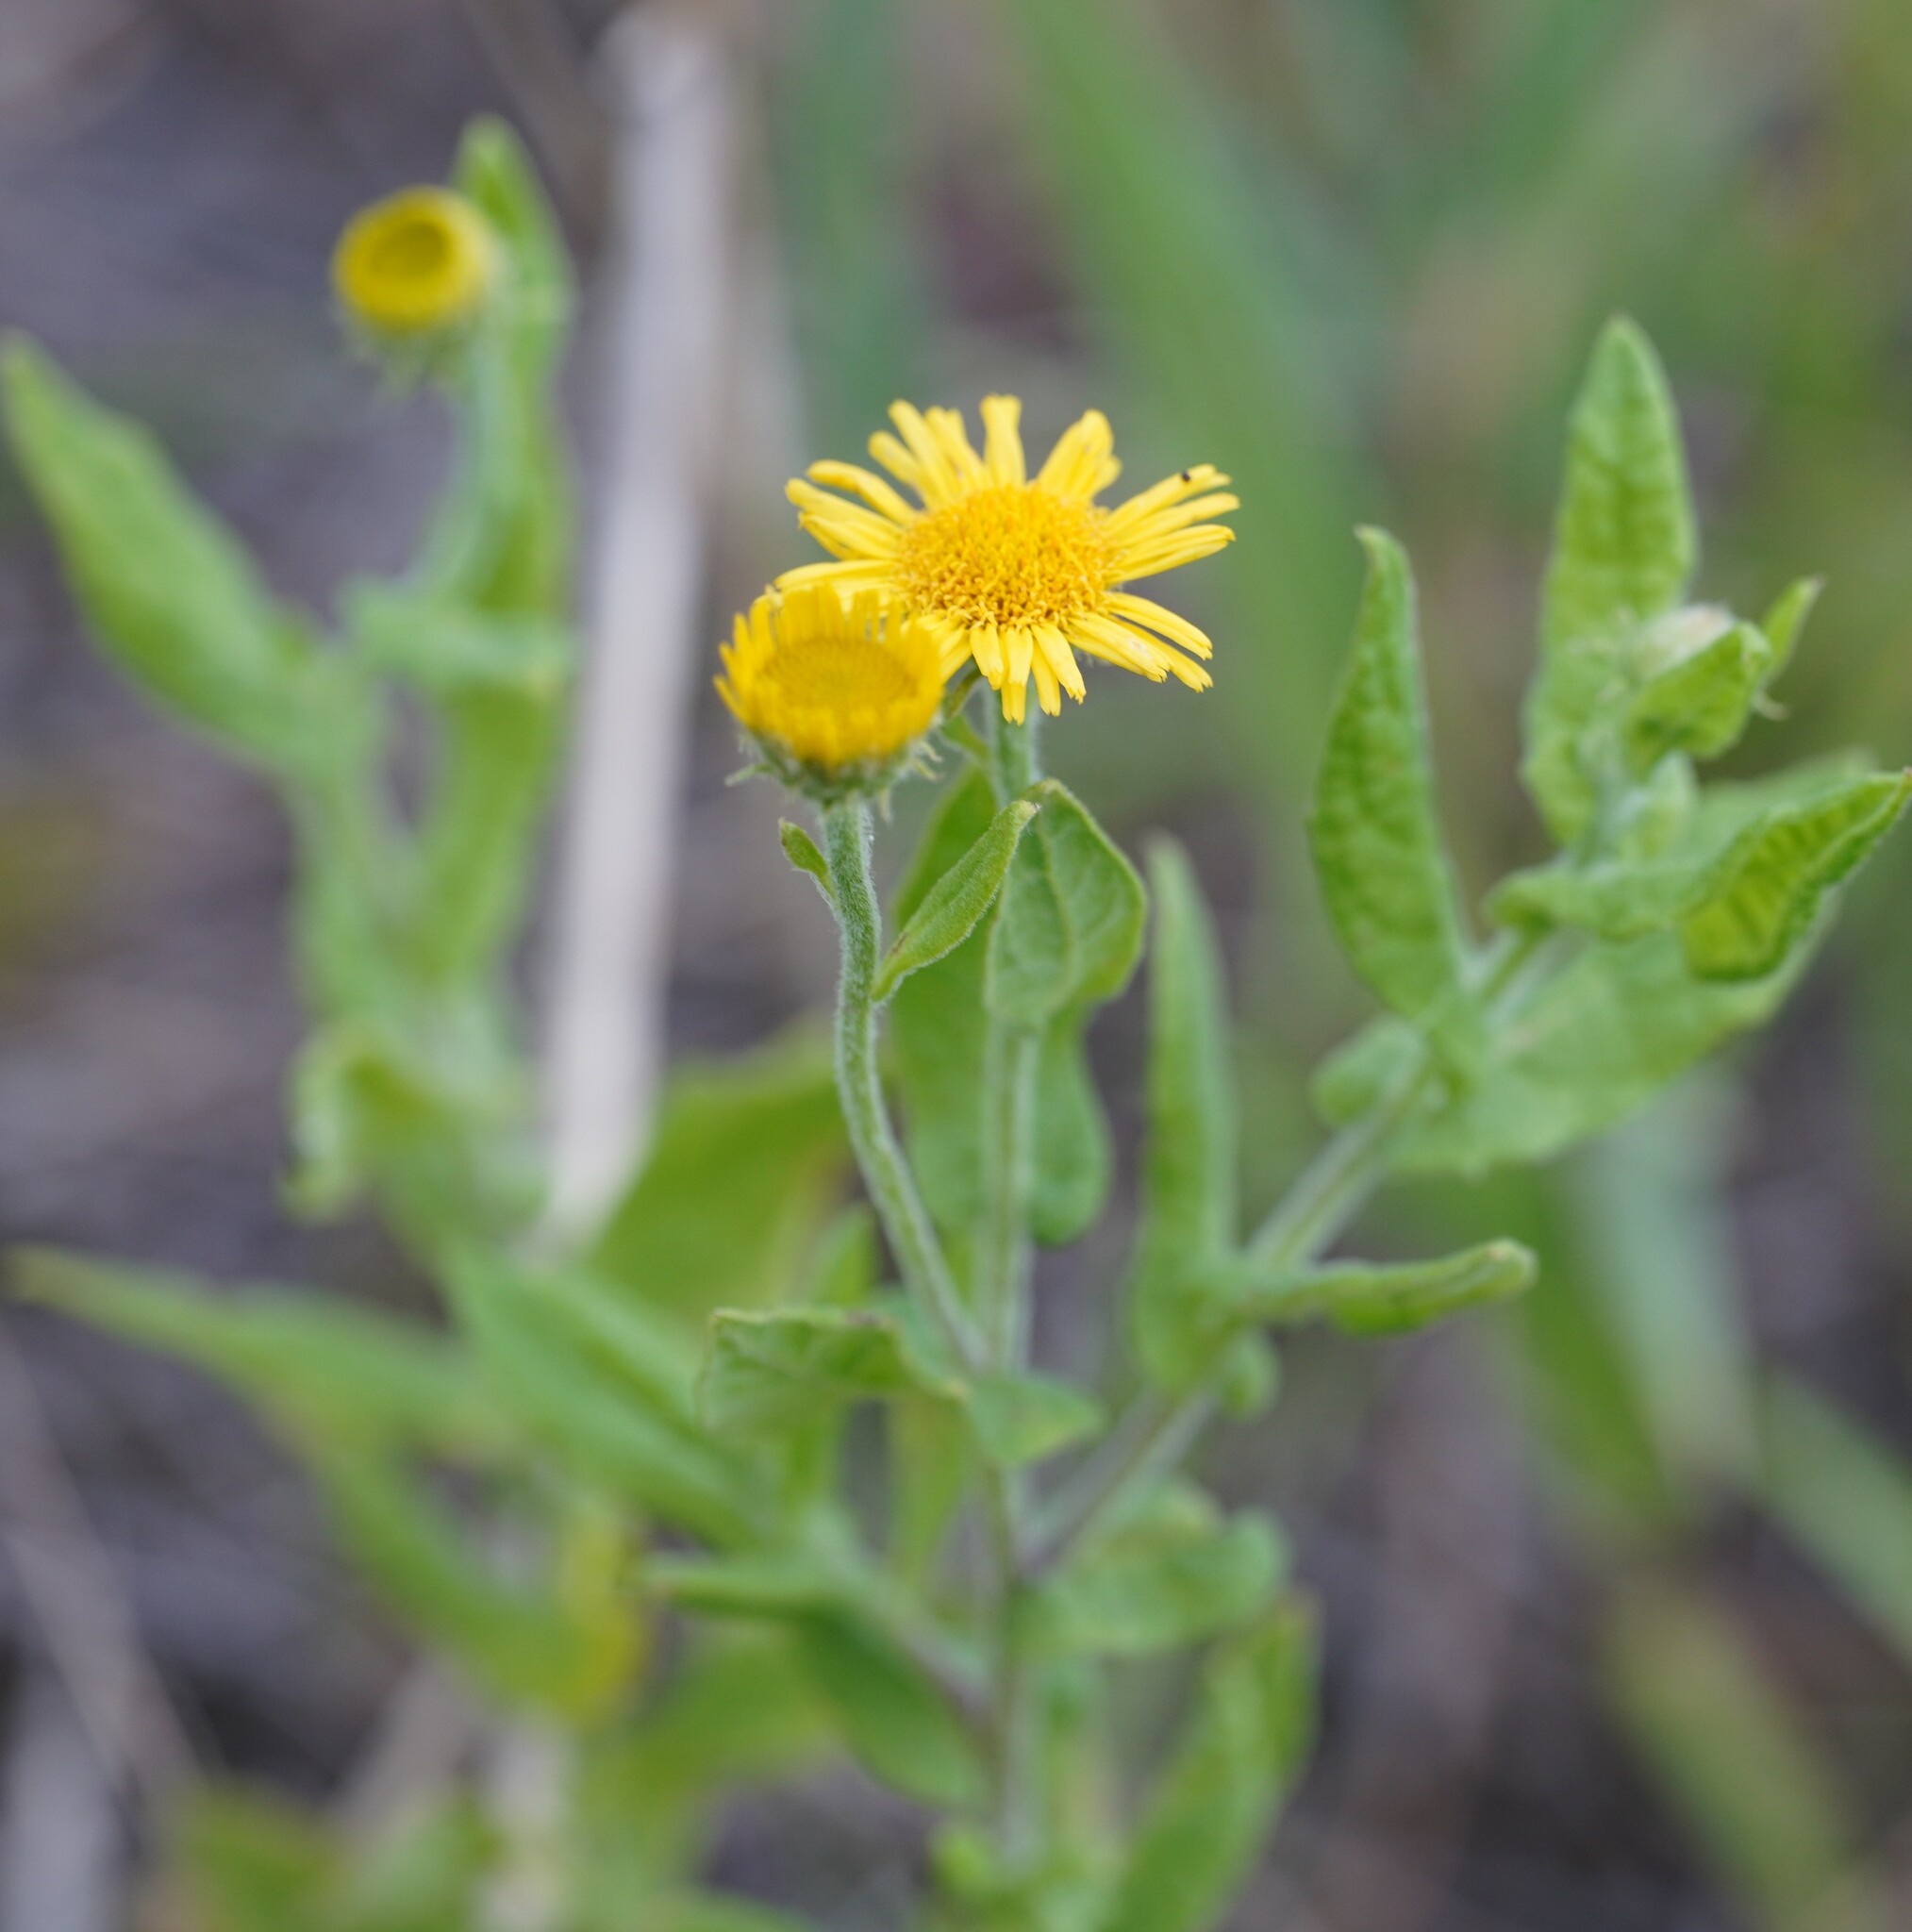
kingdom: Plantae
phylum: Tracheophyta
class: Magnoliopsida
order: Asterales
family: Asteraceae
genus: Pulicaria
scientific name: Pulicaria dysenterica
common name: Common fleabane
